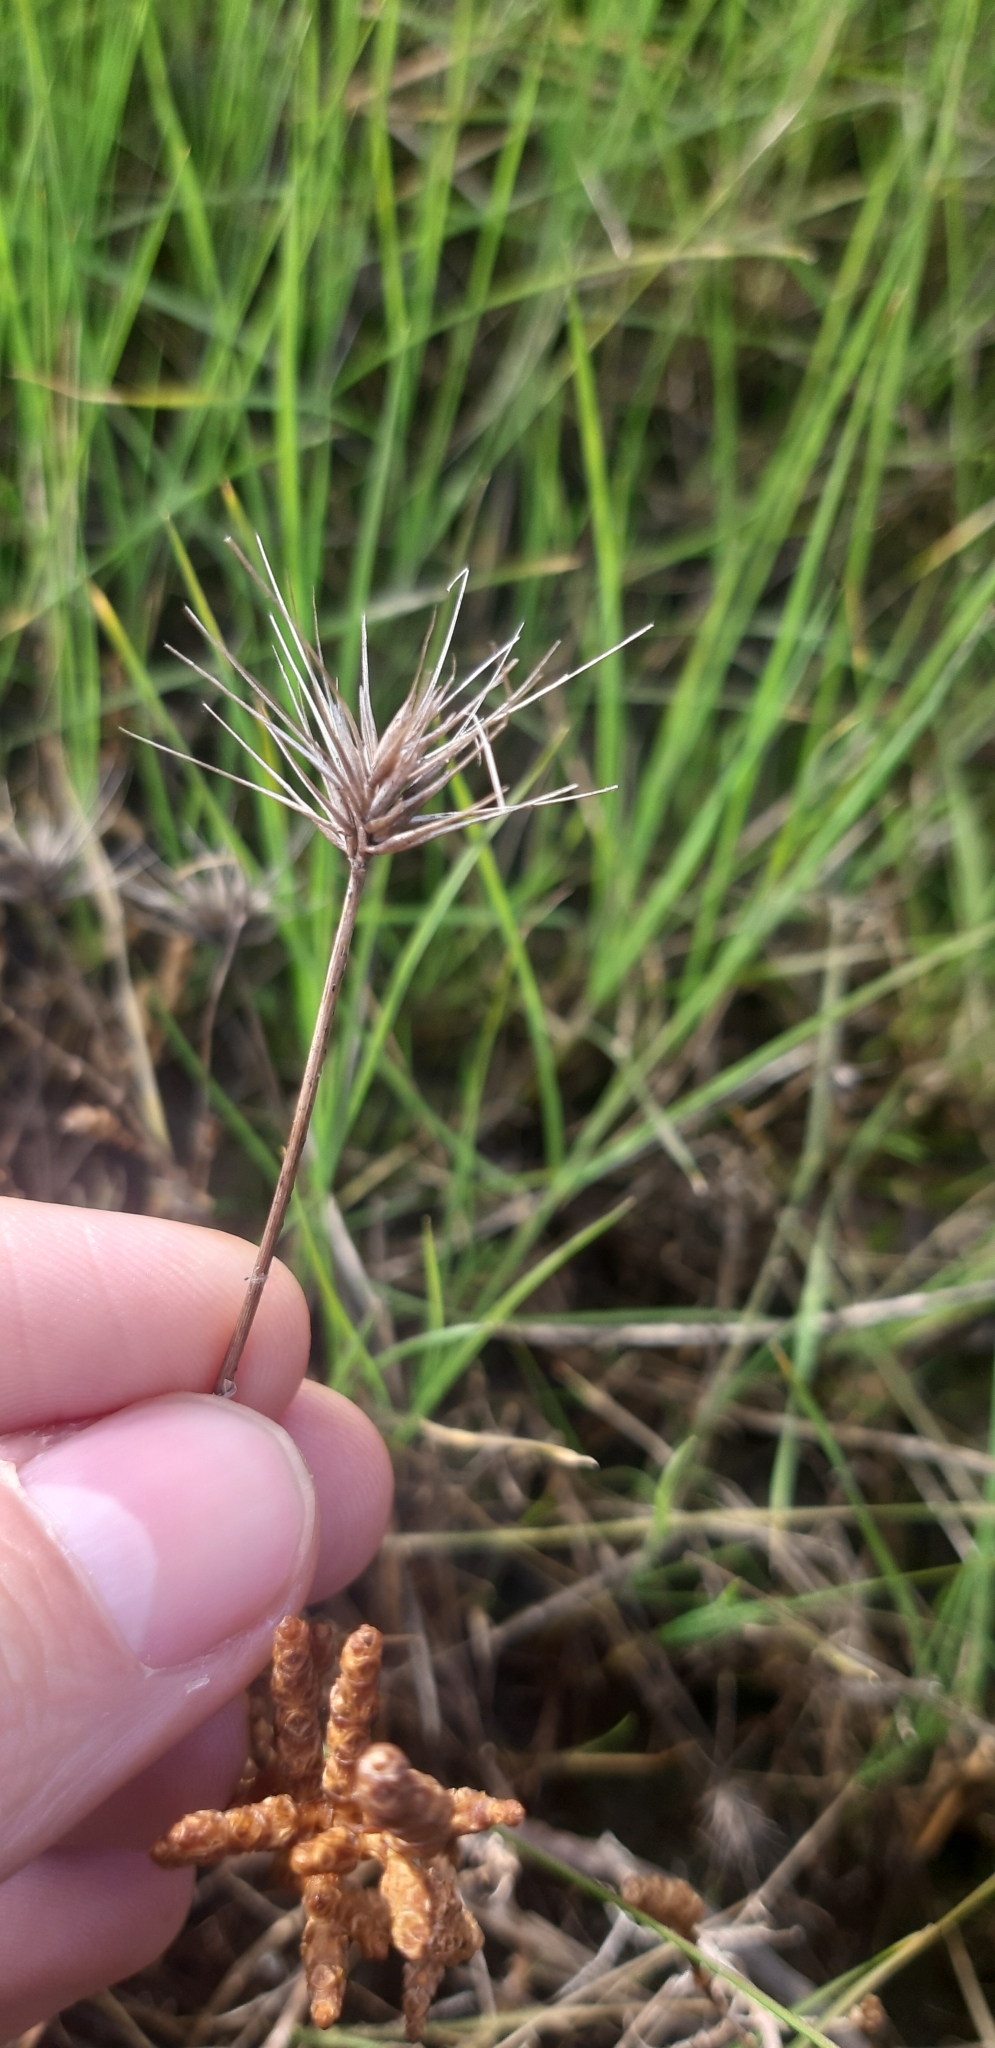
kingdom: Plantae
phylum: Tracheophyta
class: Liliopsida
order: Poales
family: Poaceae
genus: Hordeum
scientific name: Hordeum marinum
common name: Sea barley
